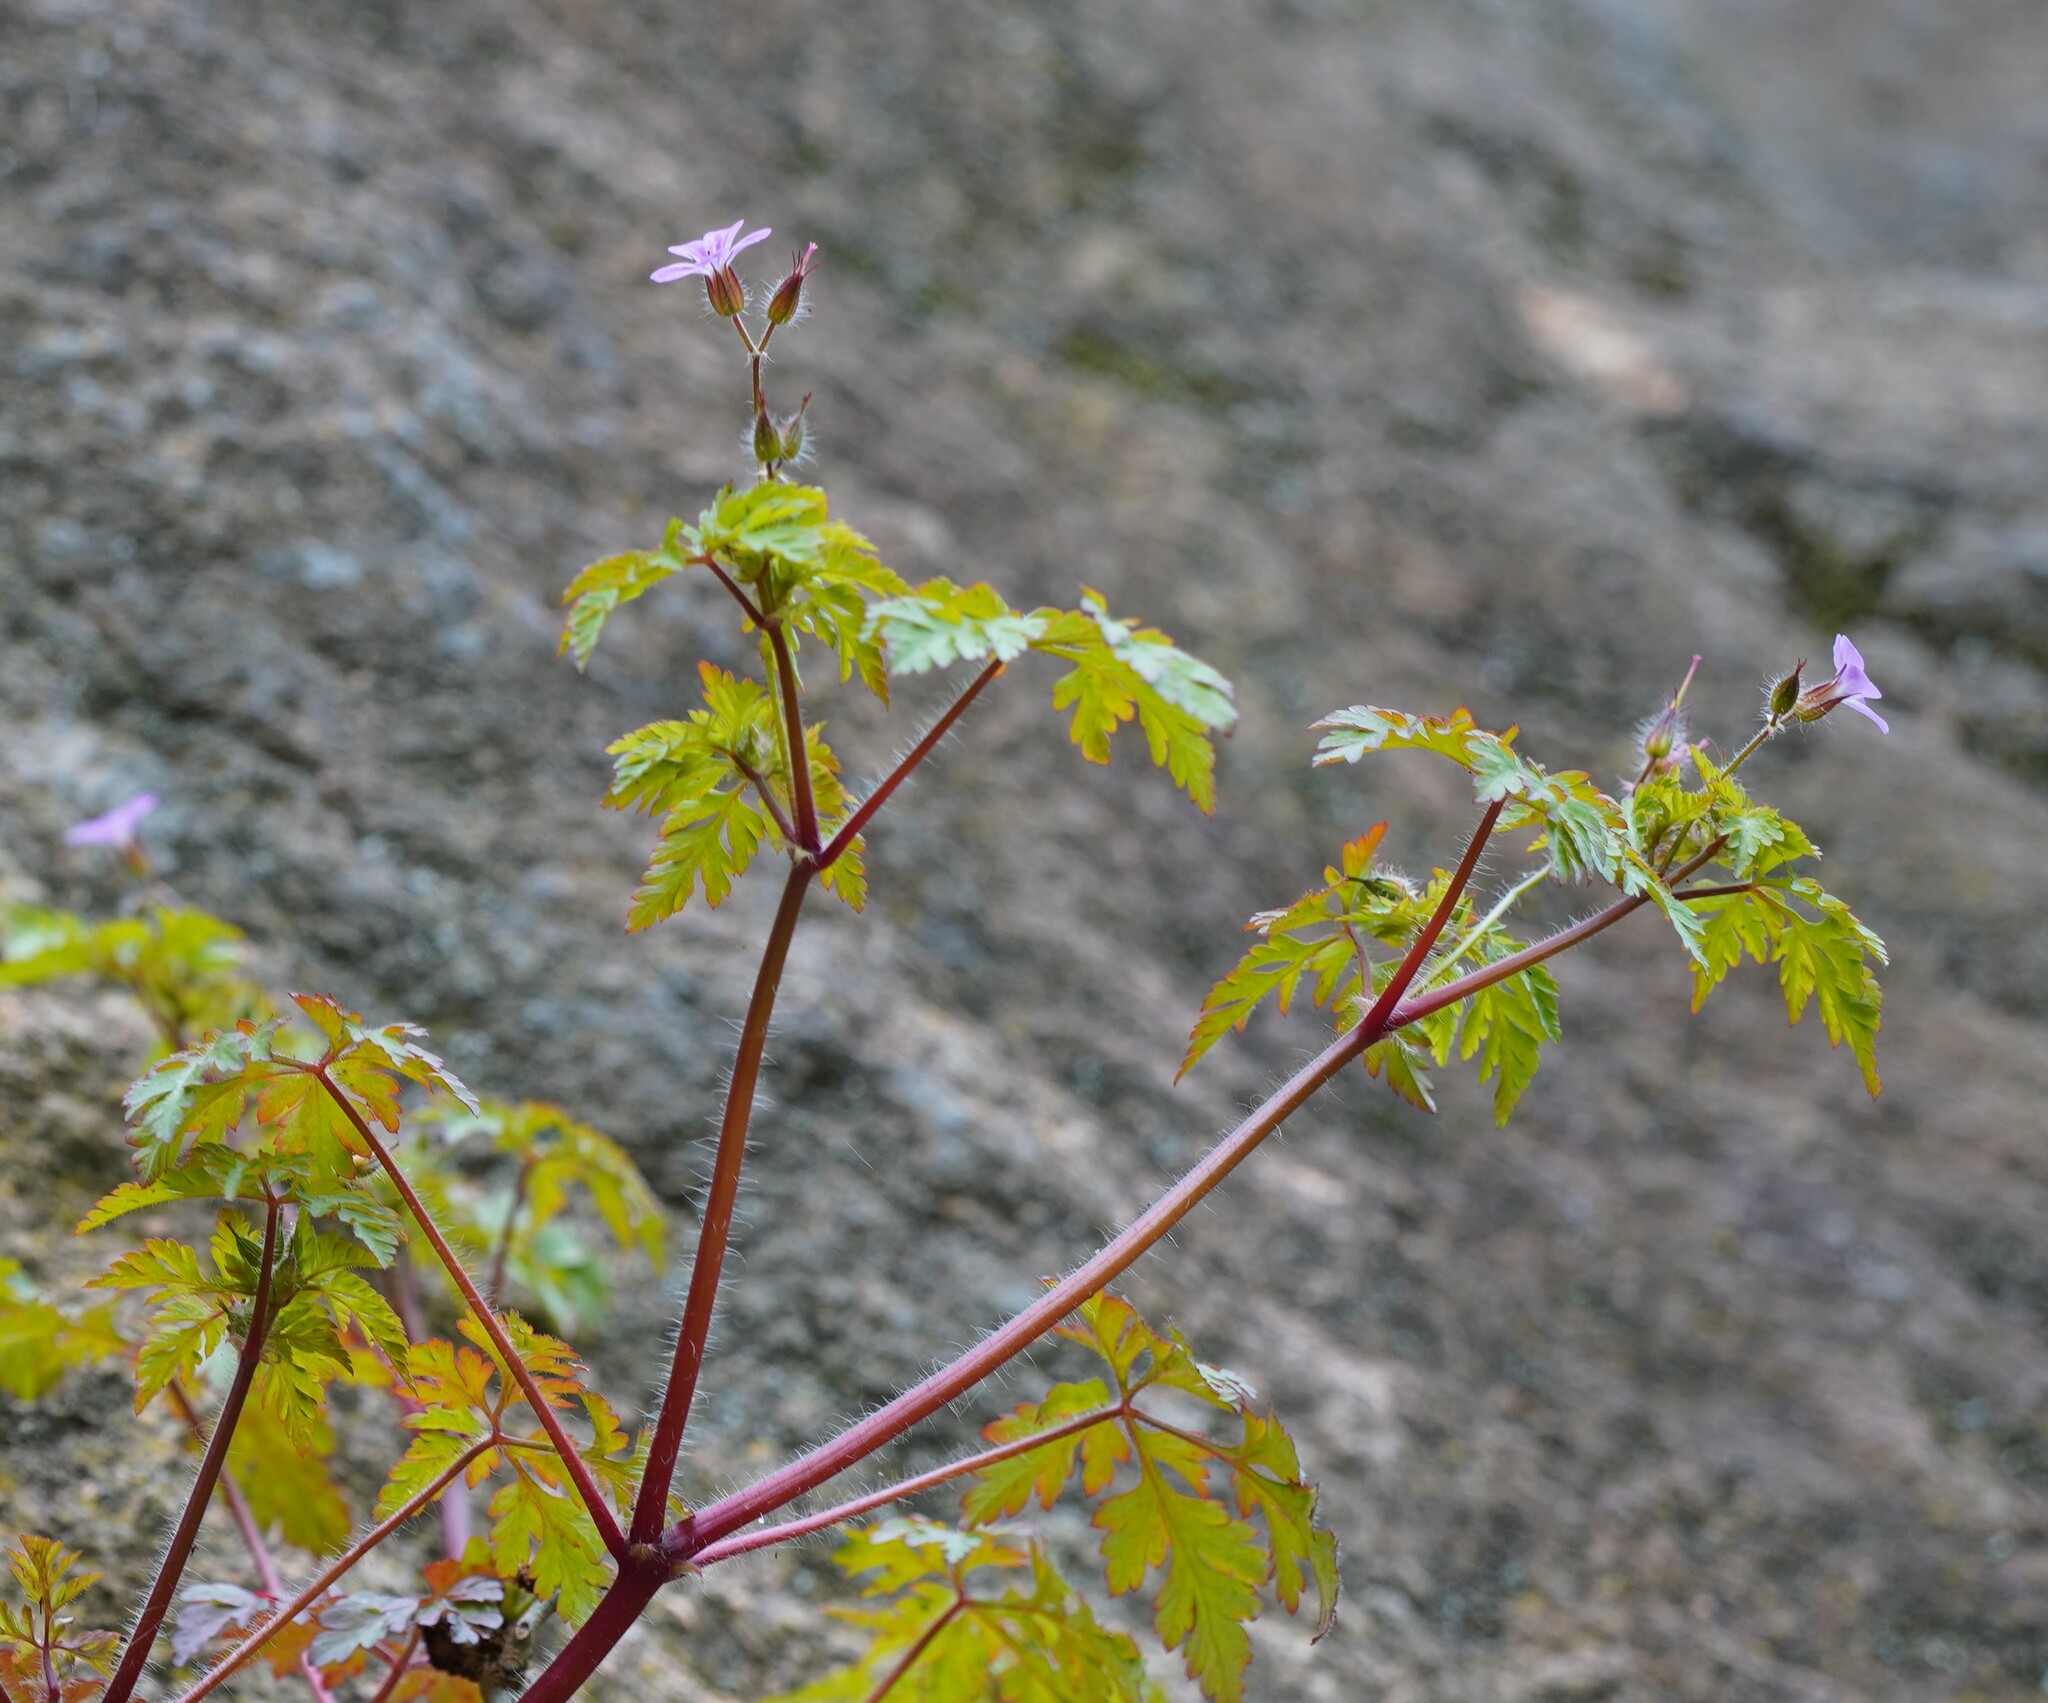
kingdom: Plantae
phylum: Tracheophyta
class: Magnoliopsida
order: Geraniales
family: Geraniaceae
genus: Geranium
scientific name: Geranium robertianum
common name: Herb-robert
